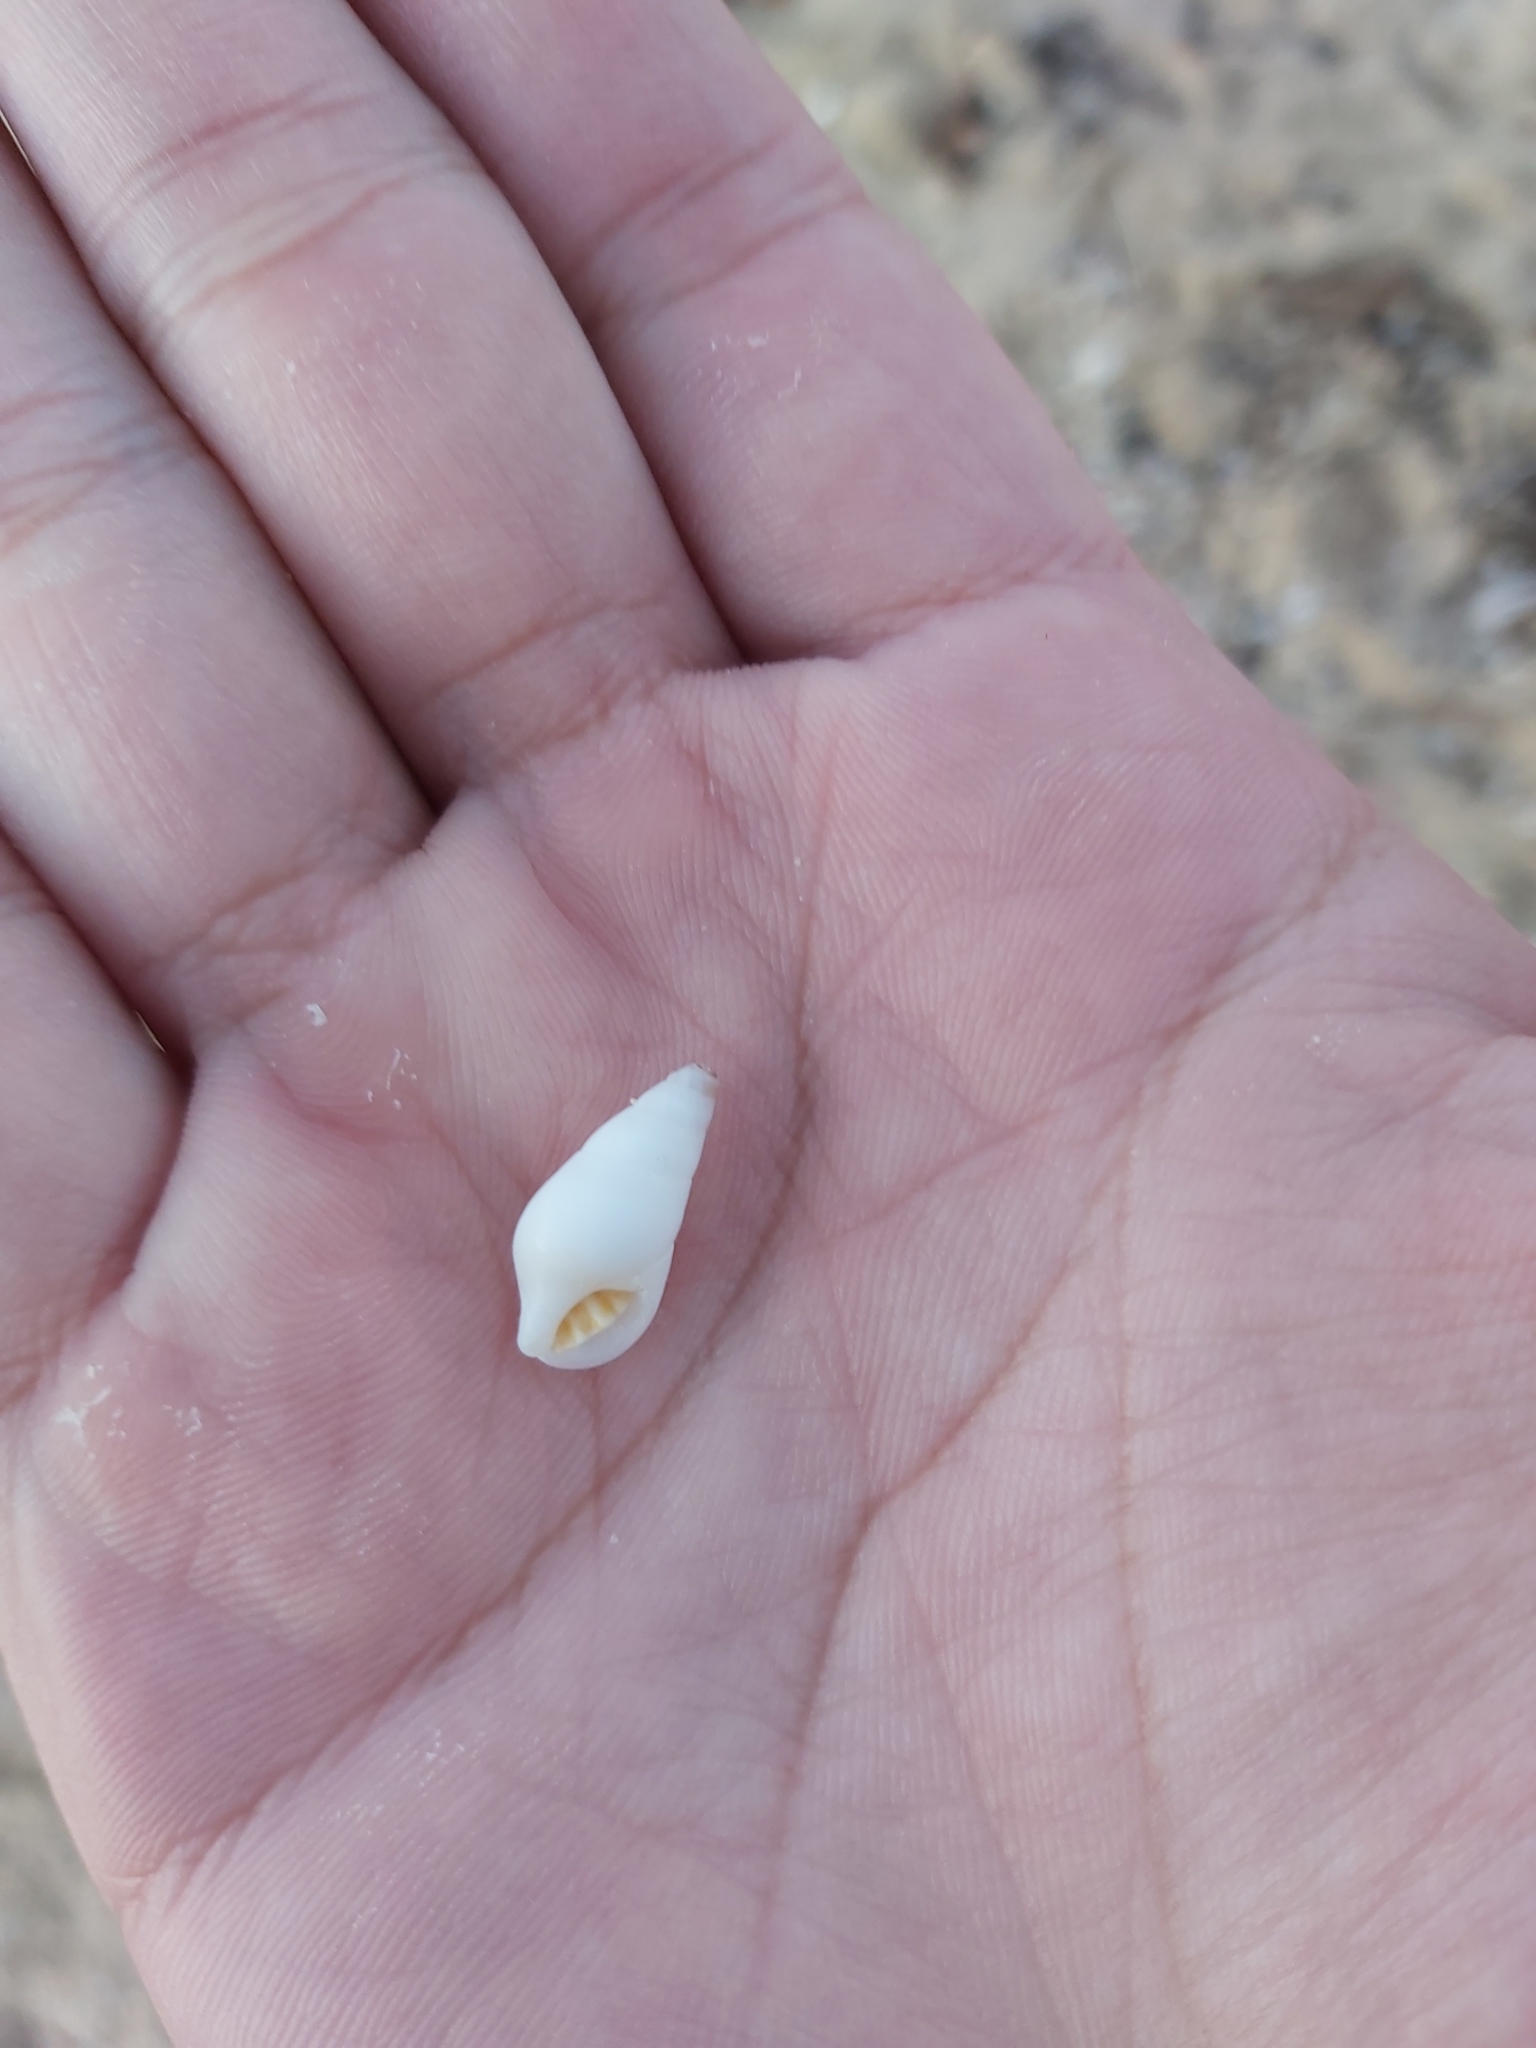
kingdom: Animalia
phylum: Mollusca
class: Gastropoda
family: Planaxidae
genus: Hinea
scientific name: Hinea brasiliana
